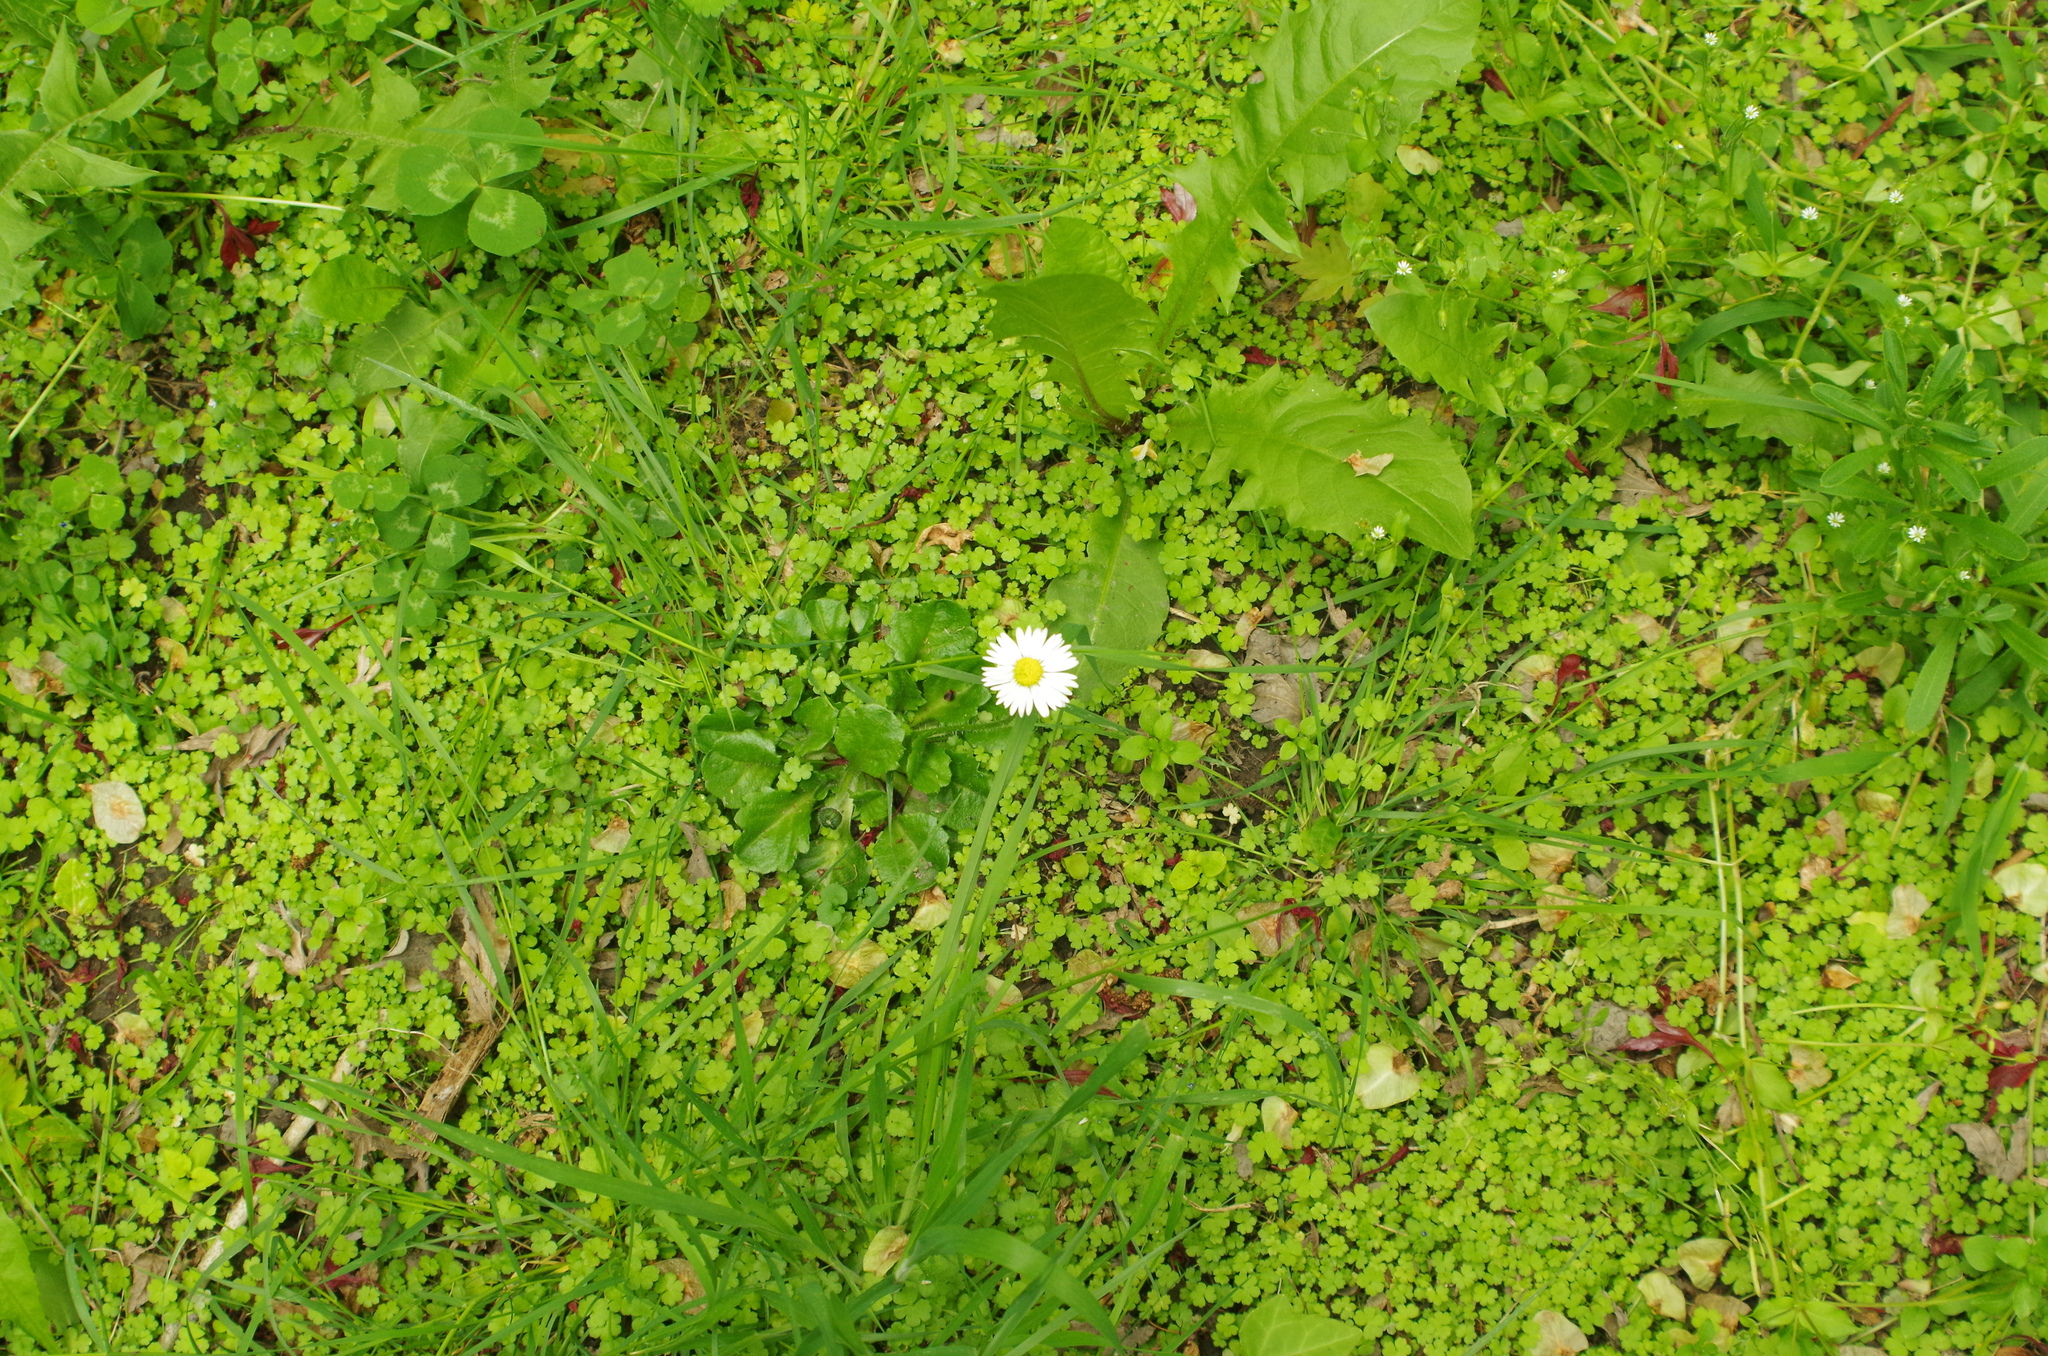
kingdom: Plantae
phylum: Tracheophyta
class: Magnoliopsida
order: Asterales
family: Asteraceae
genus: Bellis
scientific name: Bellis perennis
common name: Lawndaisy
